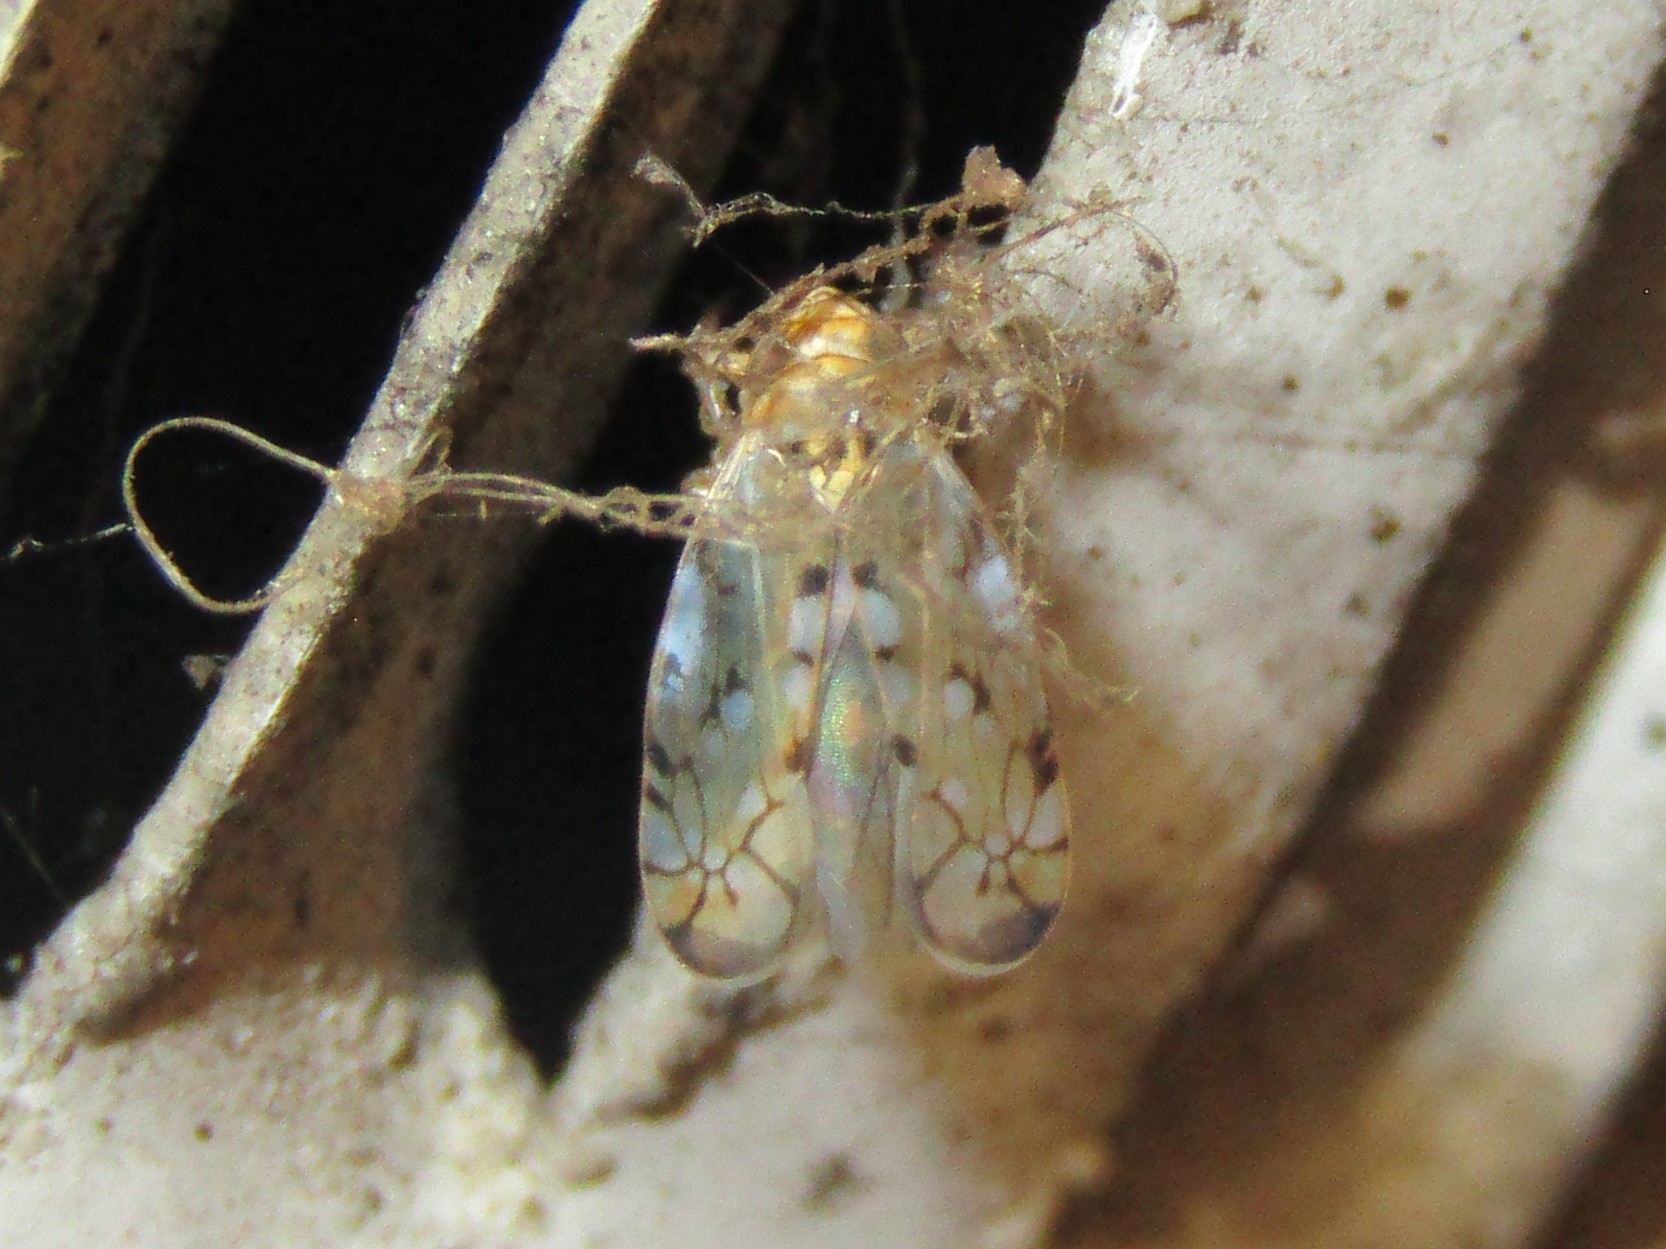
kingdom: Animalia
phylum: Arthropoda
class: Insecta
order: Hemiptera
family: Cicadellidae
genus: Scaphoideus
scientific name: Scaphoideus opalinus
